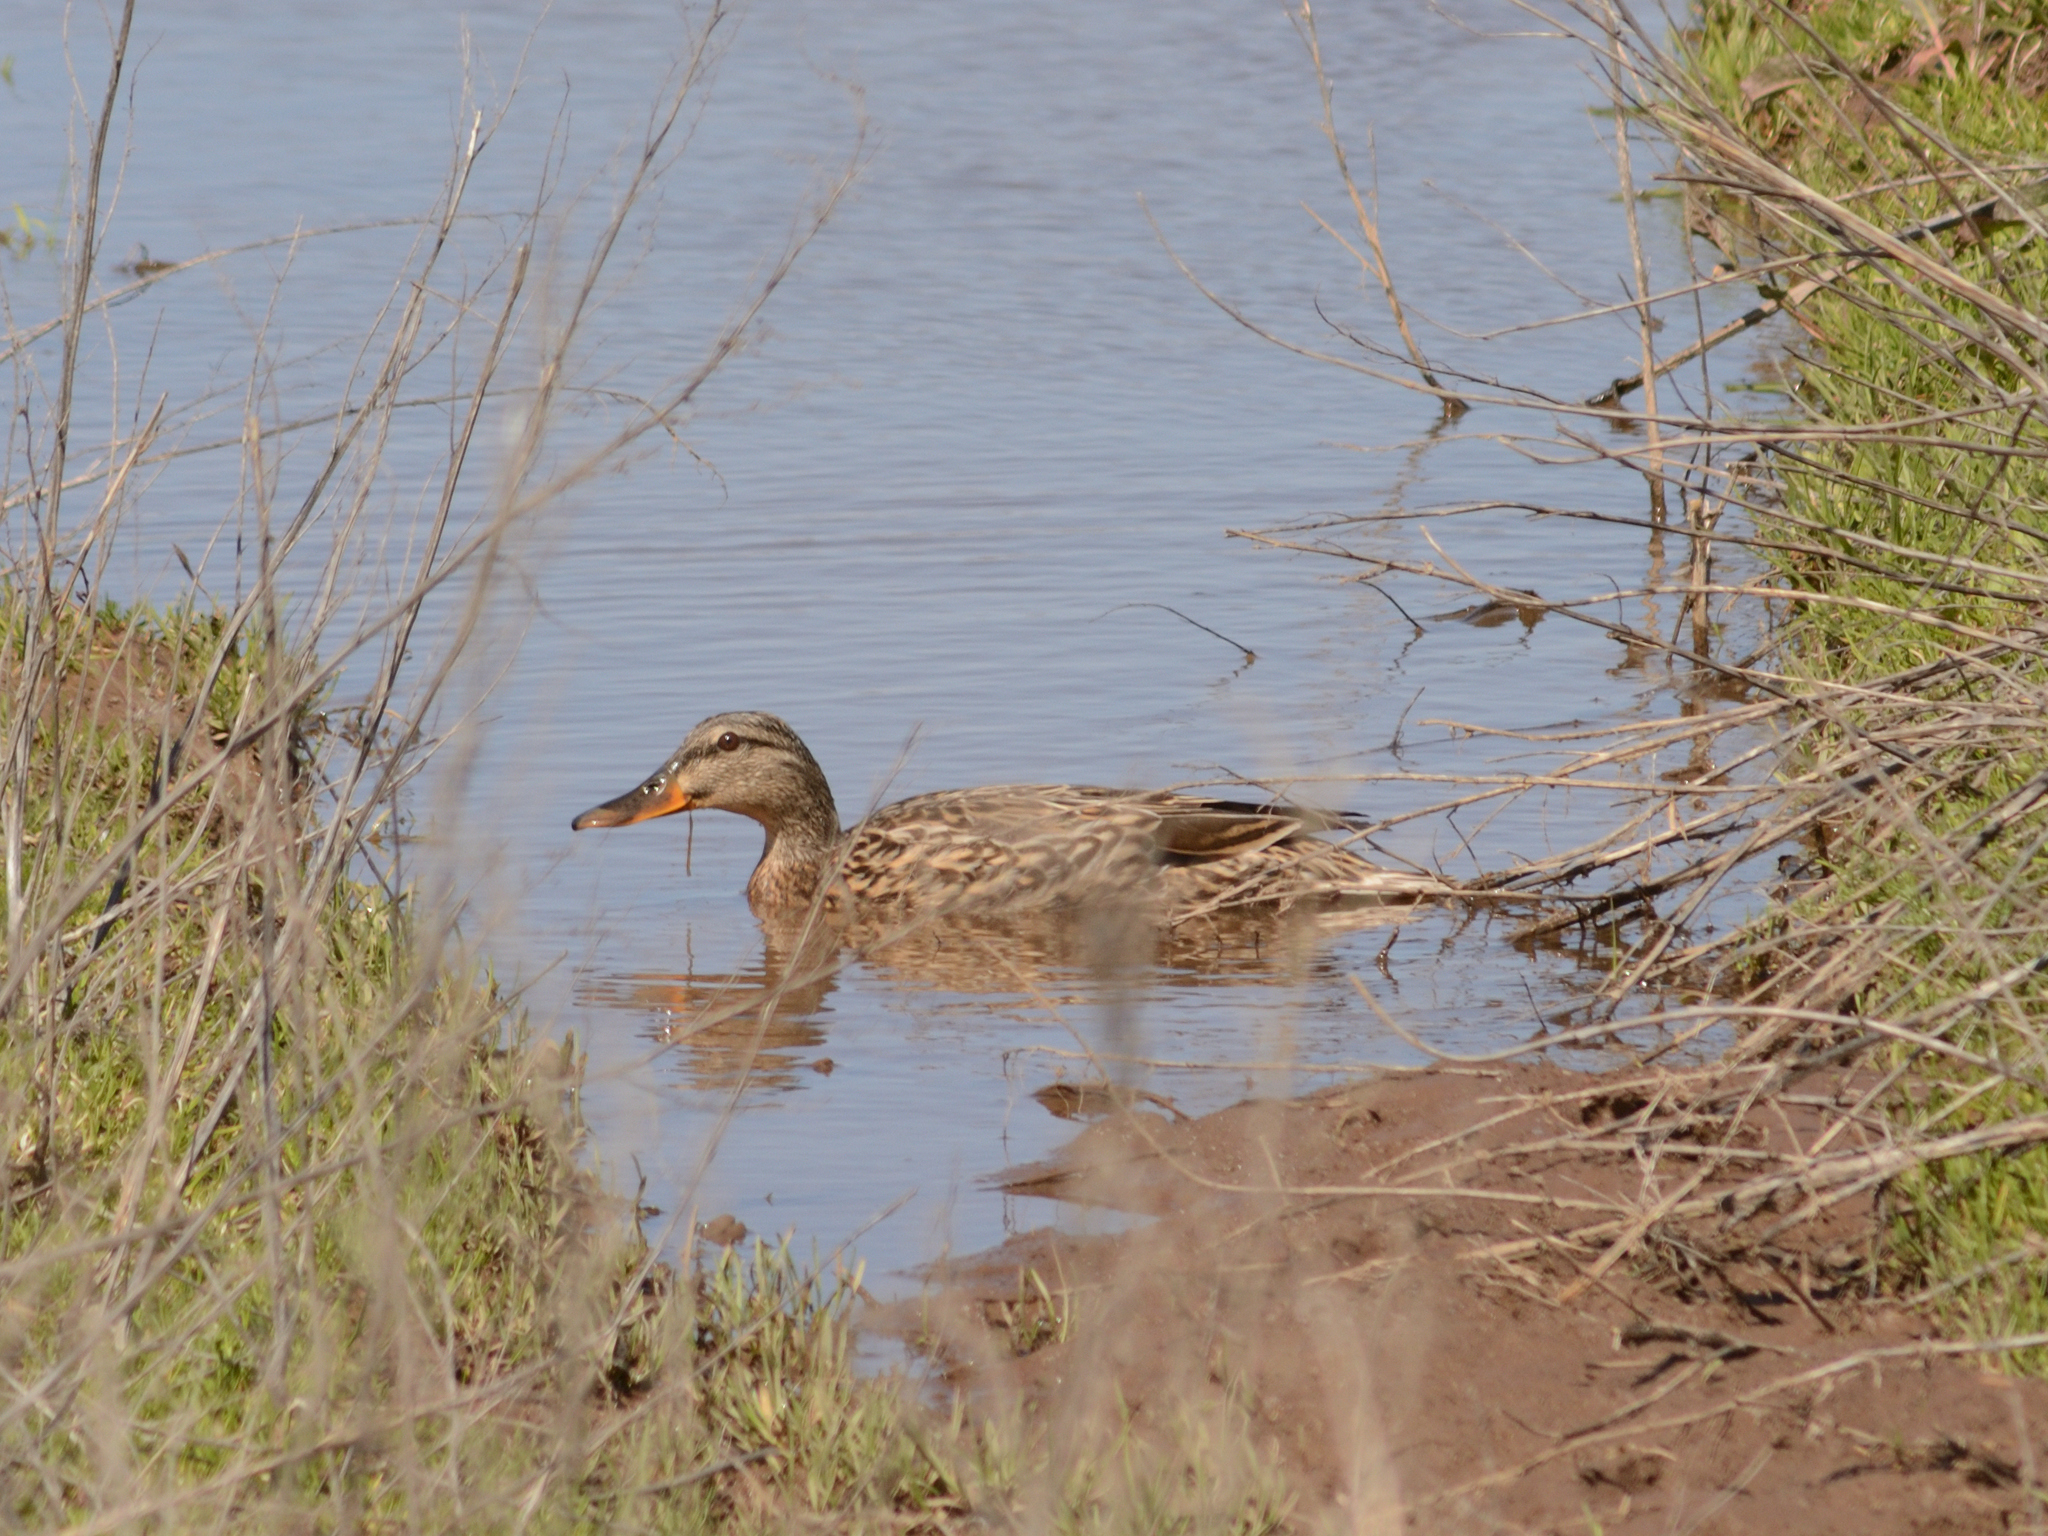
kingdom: Animalia
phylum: Chordata
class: Aves
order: Anseriformes
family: Anatidae
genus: Anas
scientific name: Anas platyrhynchos
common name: Mallard
